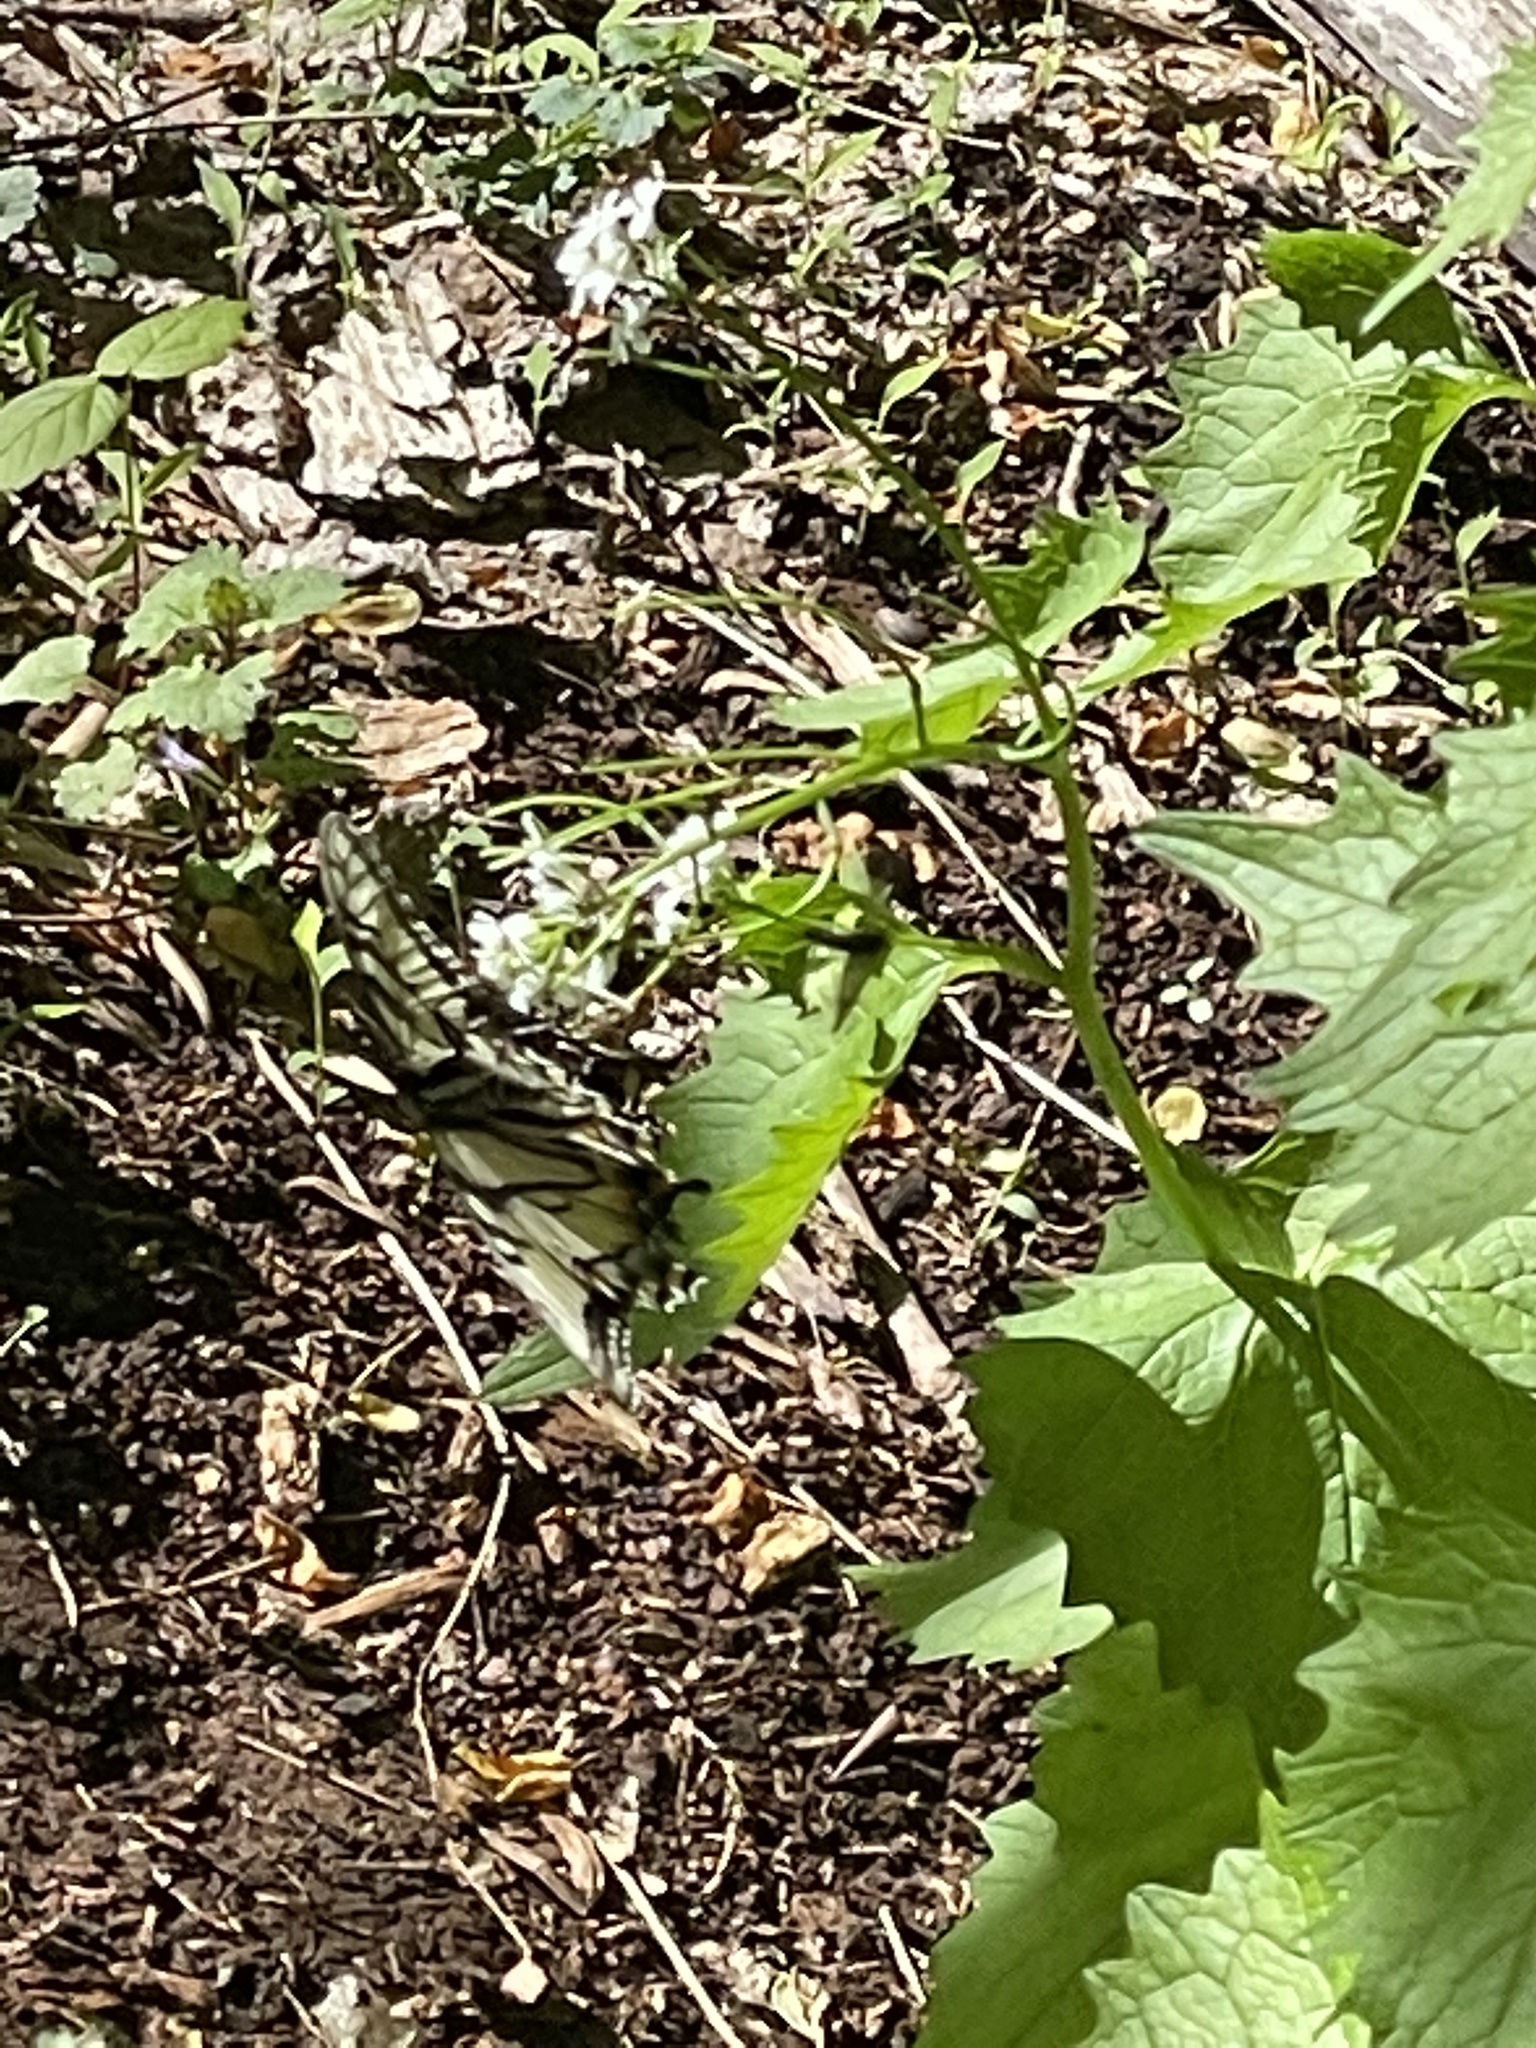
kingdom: Animalia
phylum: Arthropoda
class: Insecta
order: Lepidoptera
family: Papilionidae
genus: Papilio
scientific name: Papilio glaucus
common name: Tiger swallowtail
